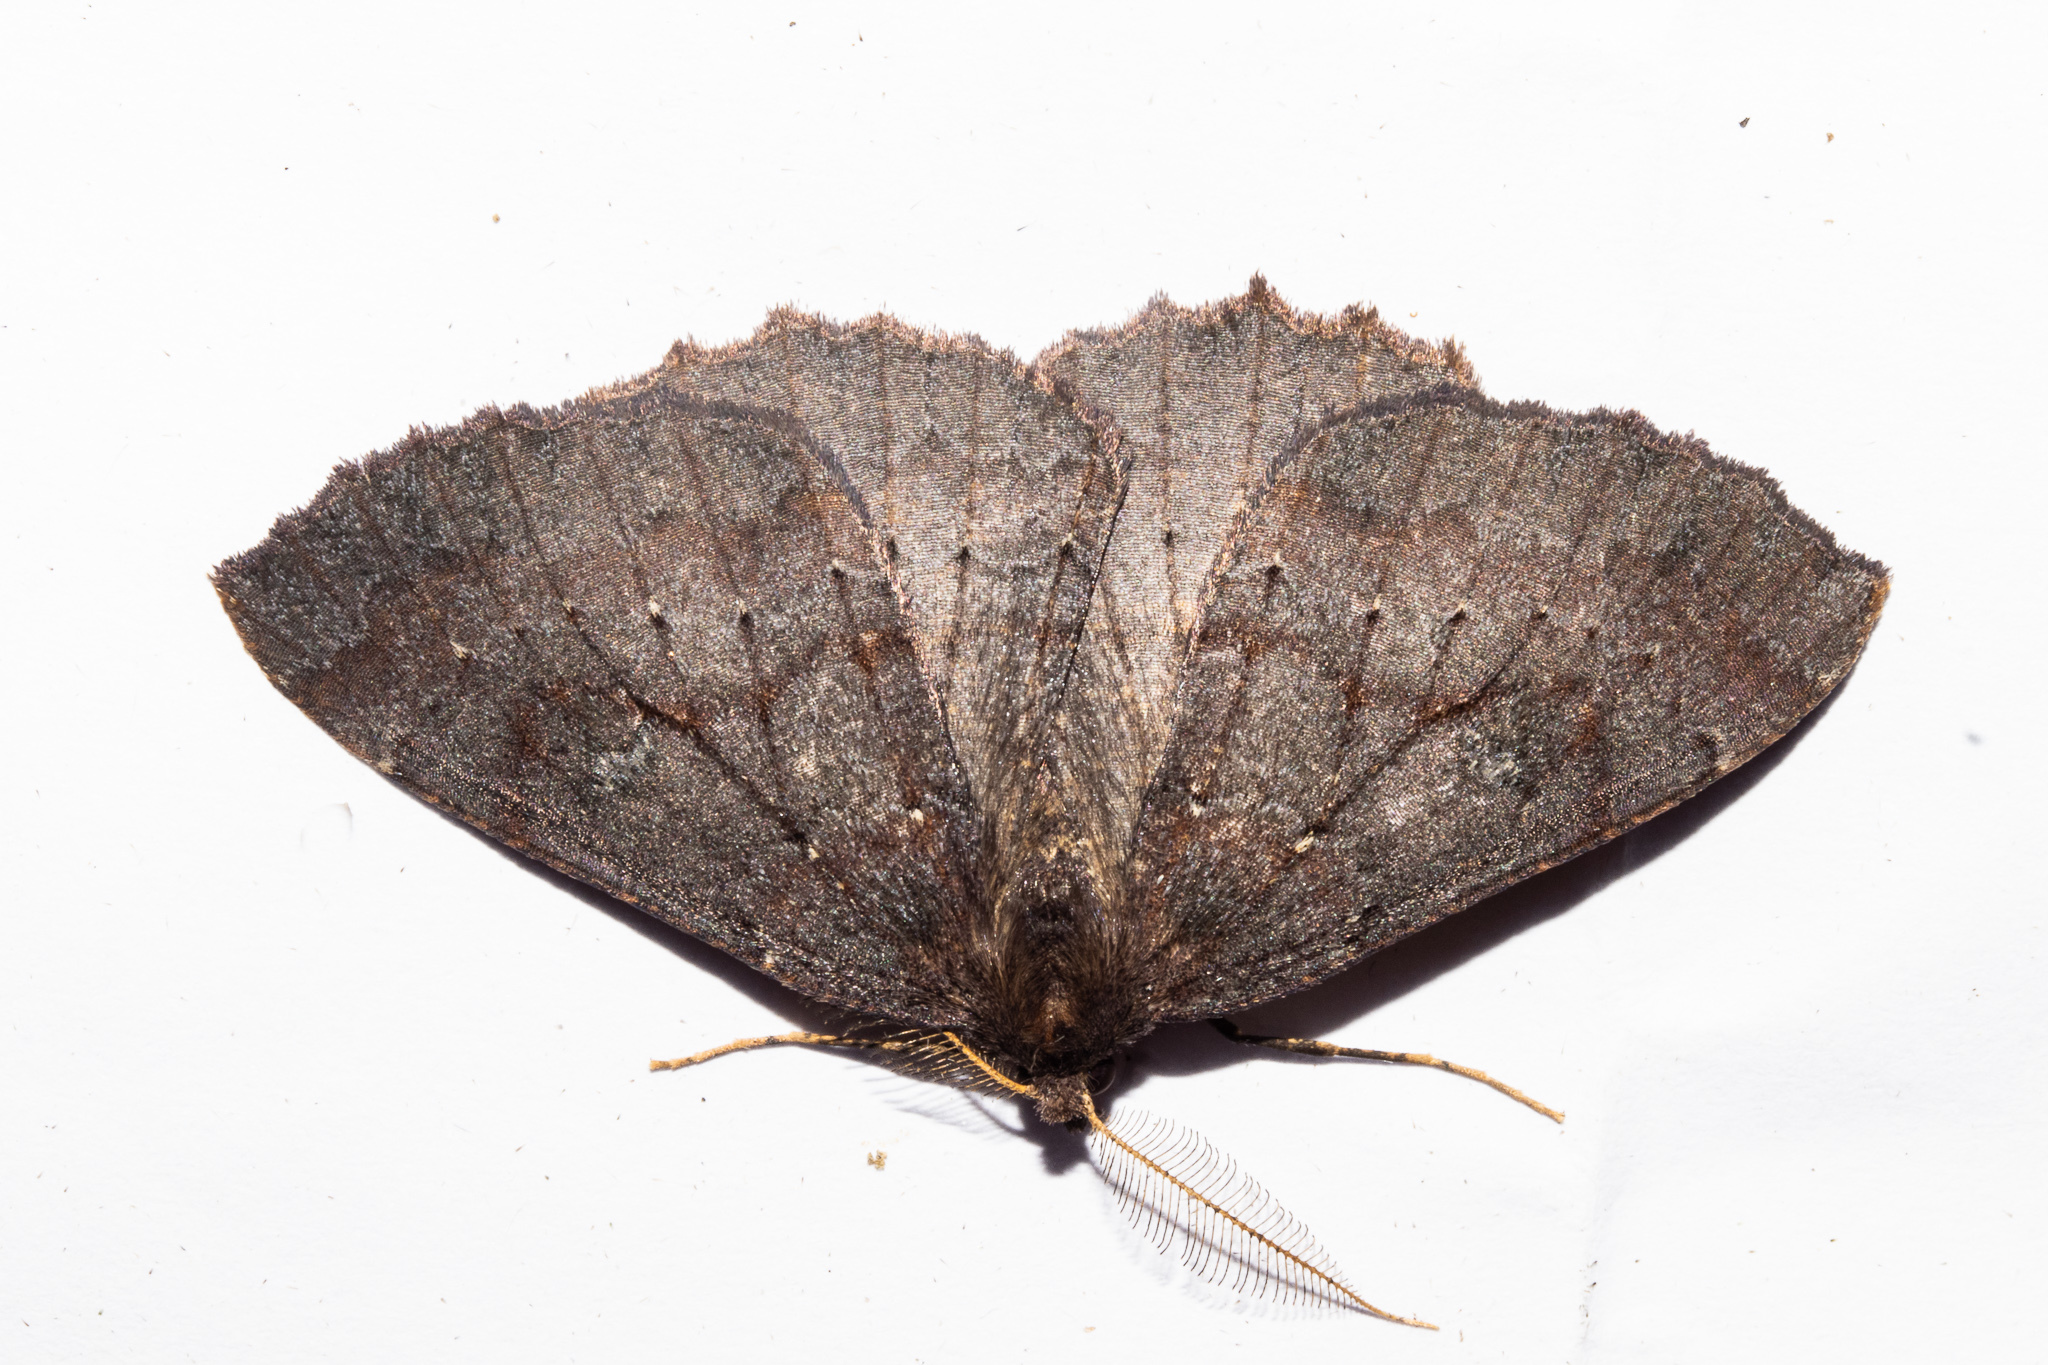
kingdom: Animalia
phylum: Arthropoda
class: Insecta
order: Lepidoptera
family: Geometridae
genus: Cleora
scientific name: Cleora scriptaria
